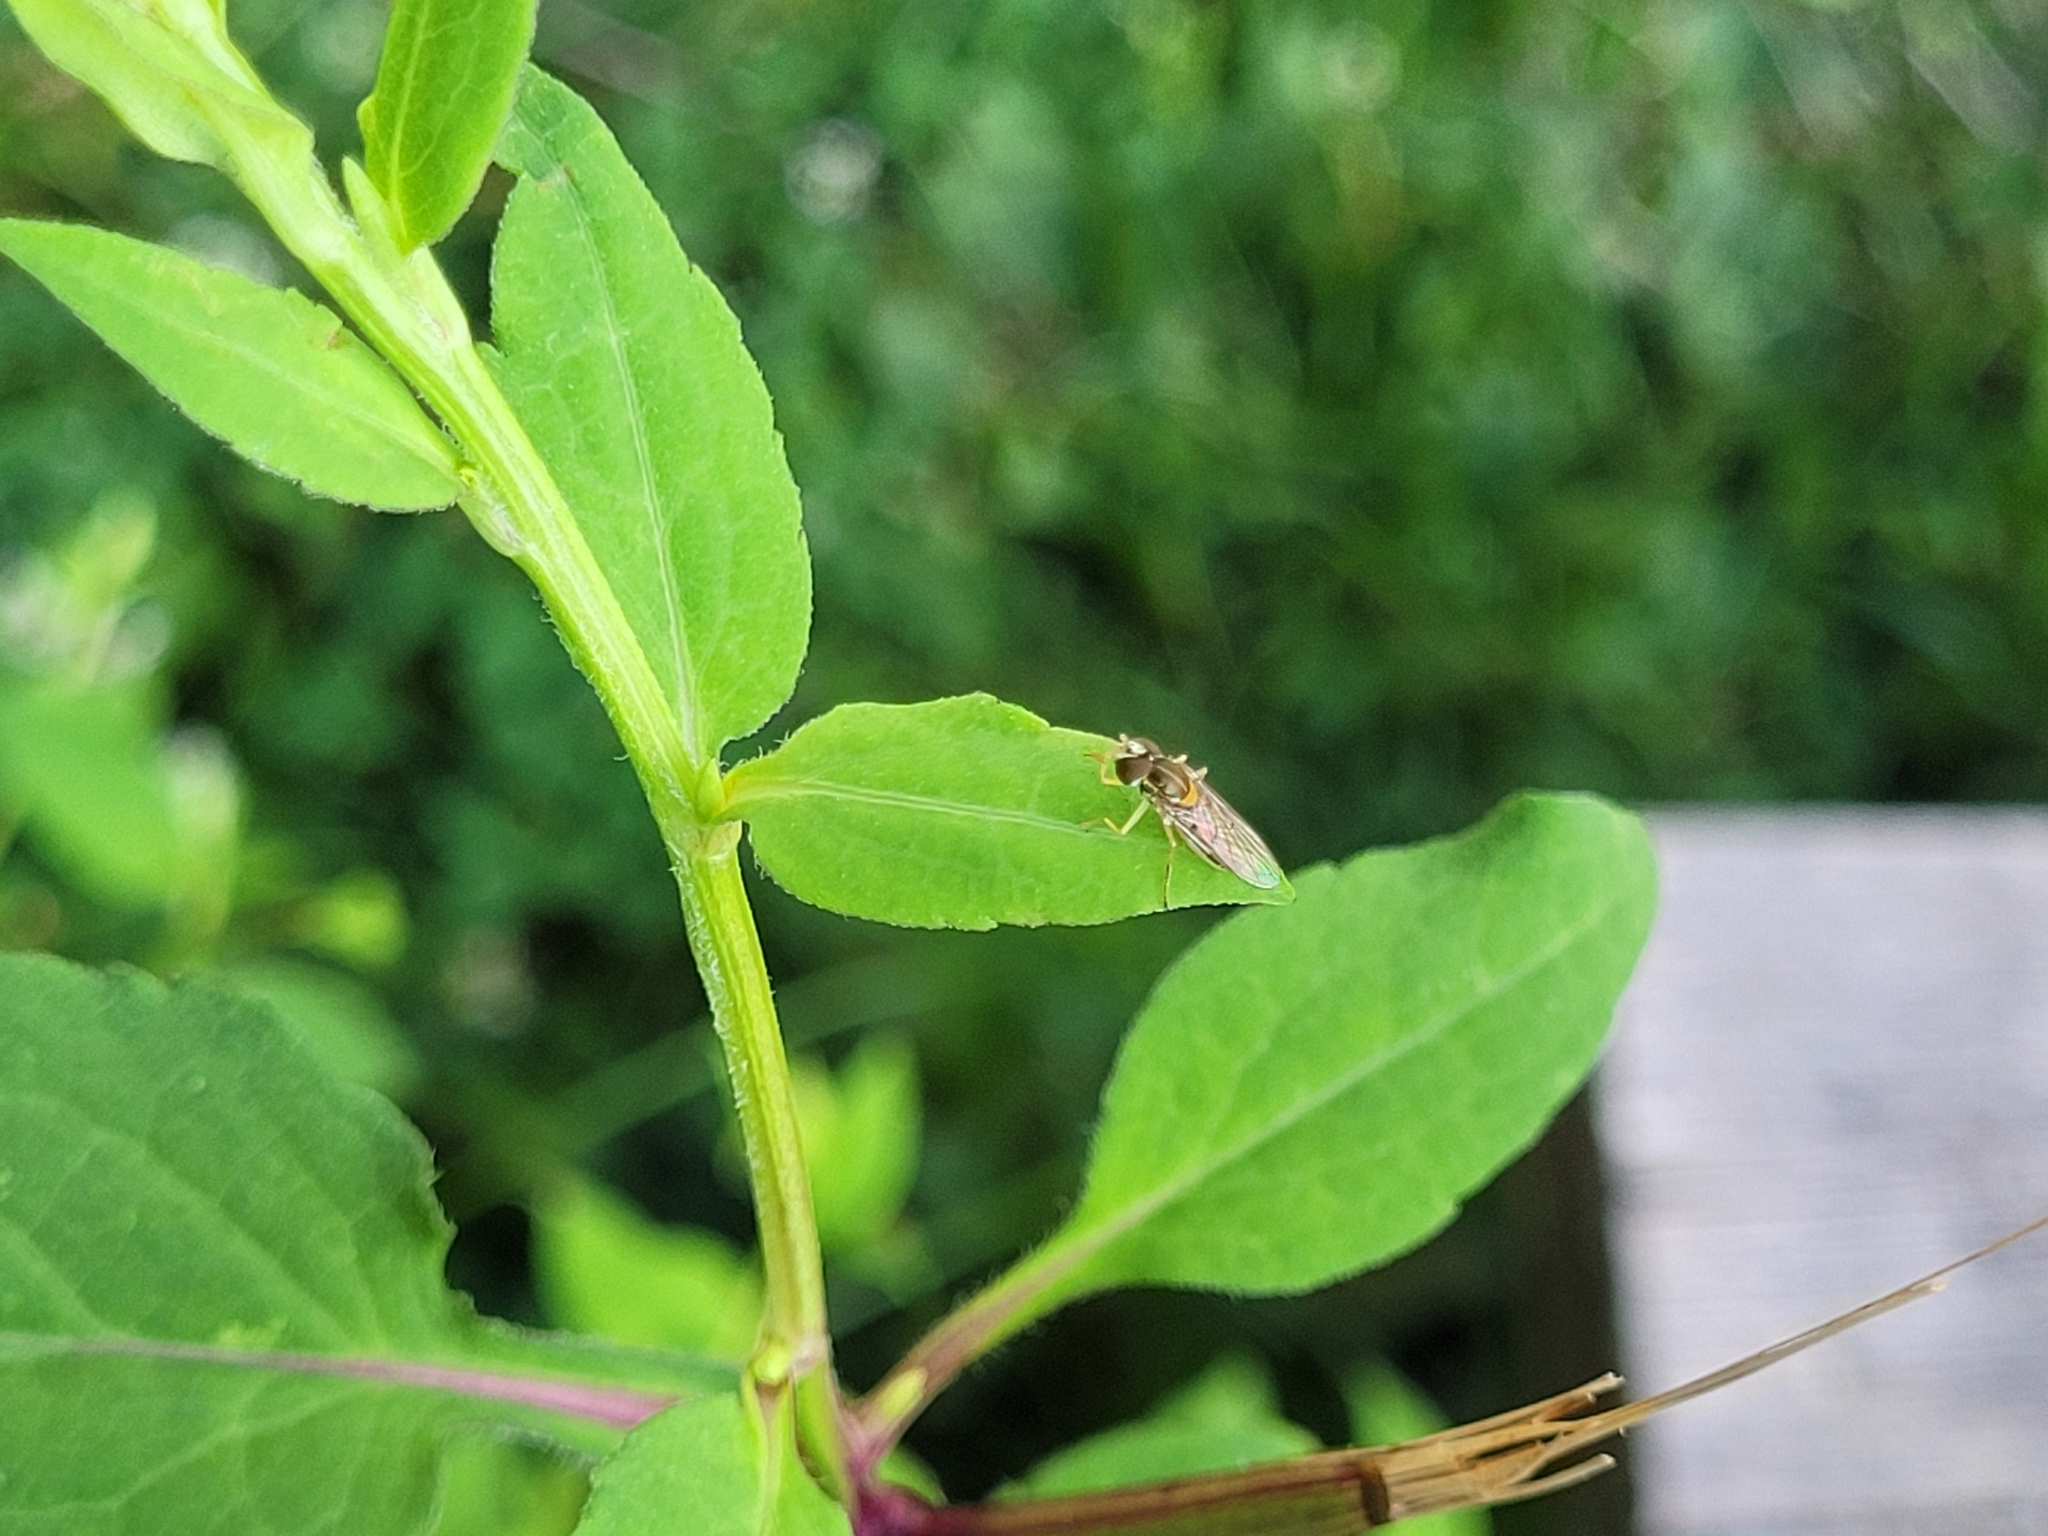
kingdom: Animalia
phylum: Arthropoda
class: Insecta
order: Diptera
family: Syrphidae
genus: Toxomerus
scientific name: Toxomerus marginatus
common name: Syrphid fly
